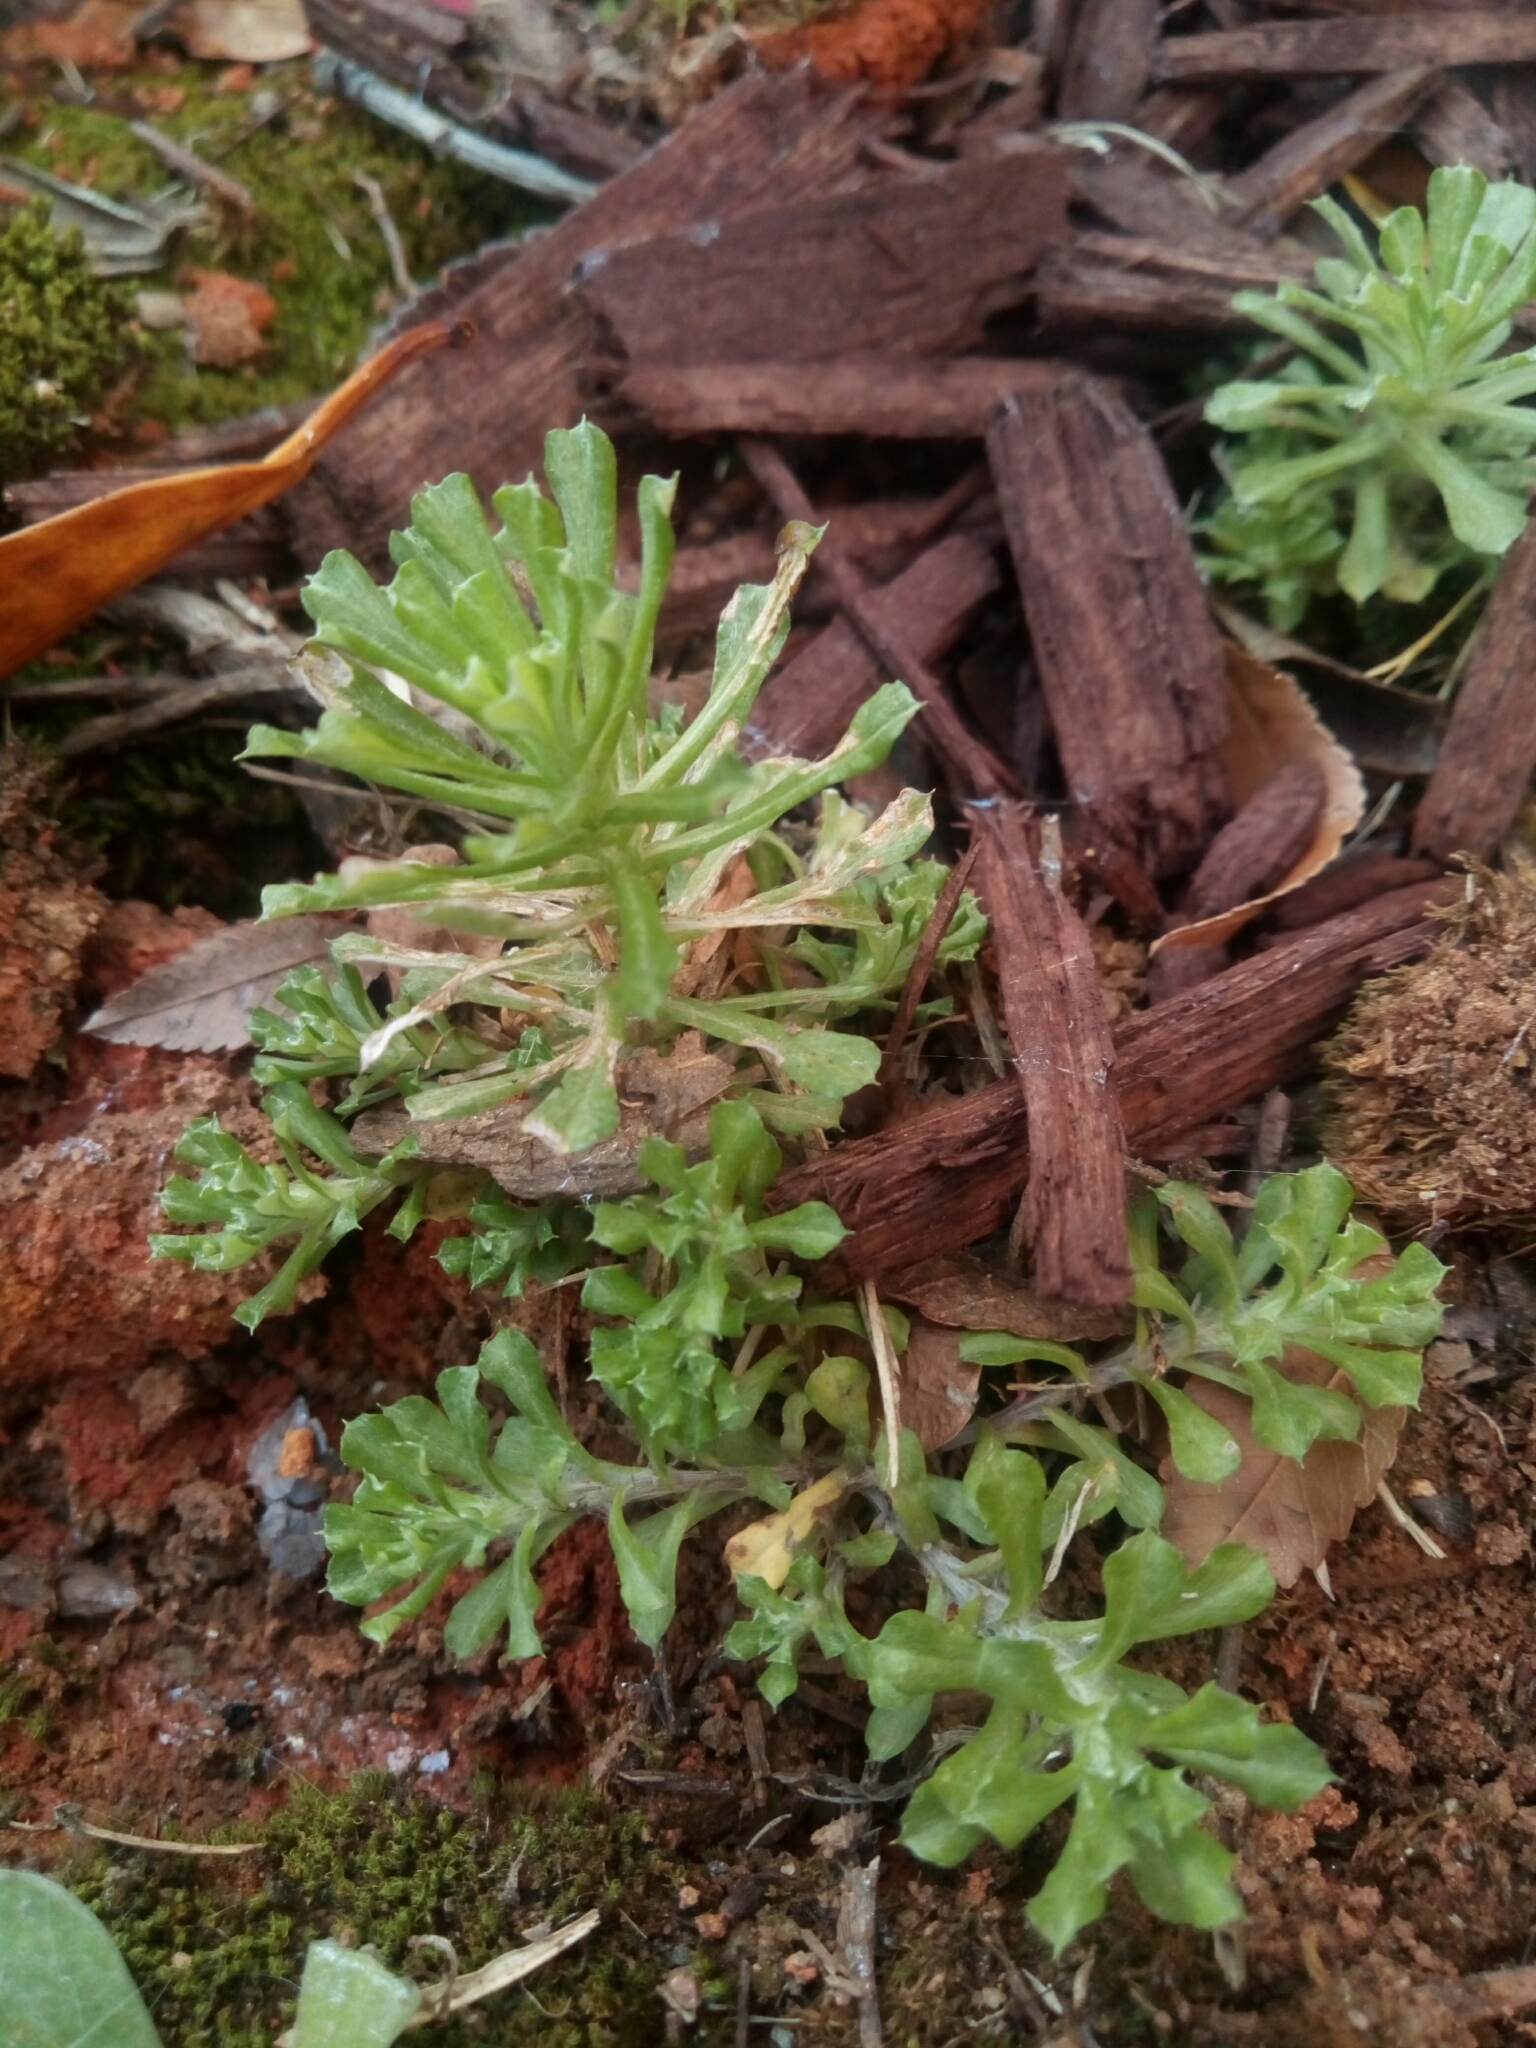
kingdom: Plantae
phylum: Tracheophyta
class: Magnoliopsida
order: Asterales
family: Asteraceae
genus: Facelis
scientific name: Facelis retusa
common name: Annual trampweed
